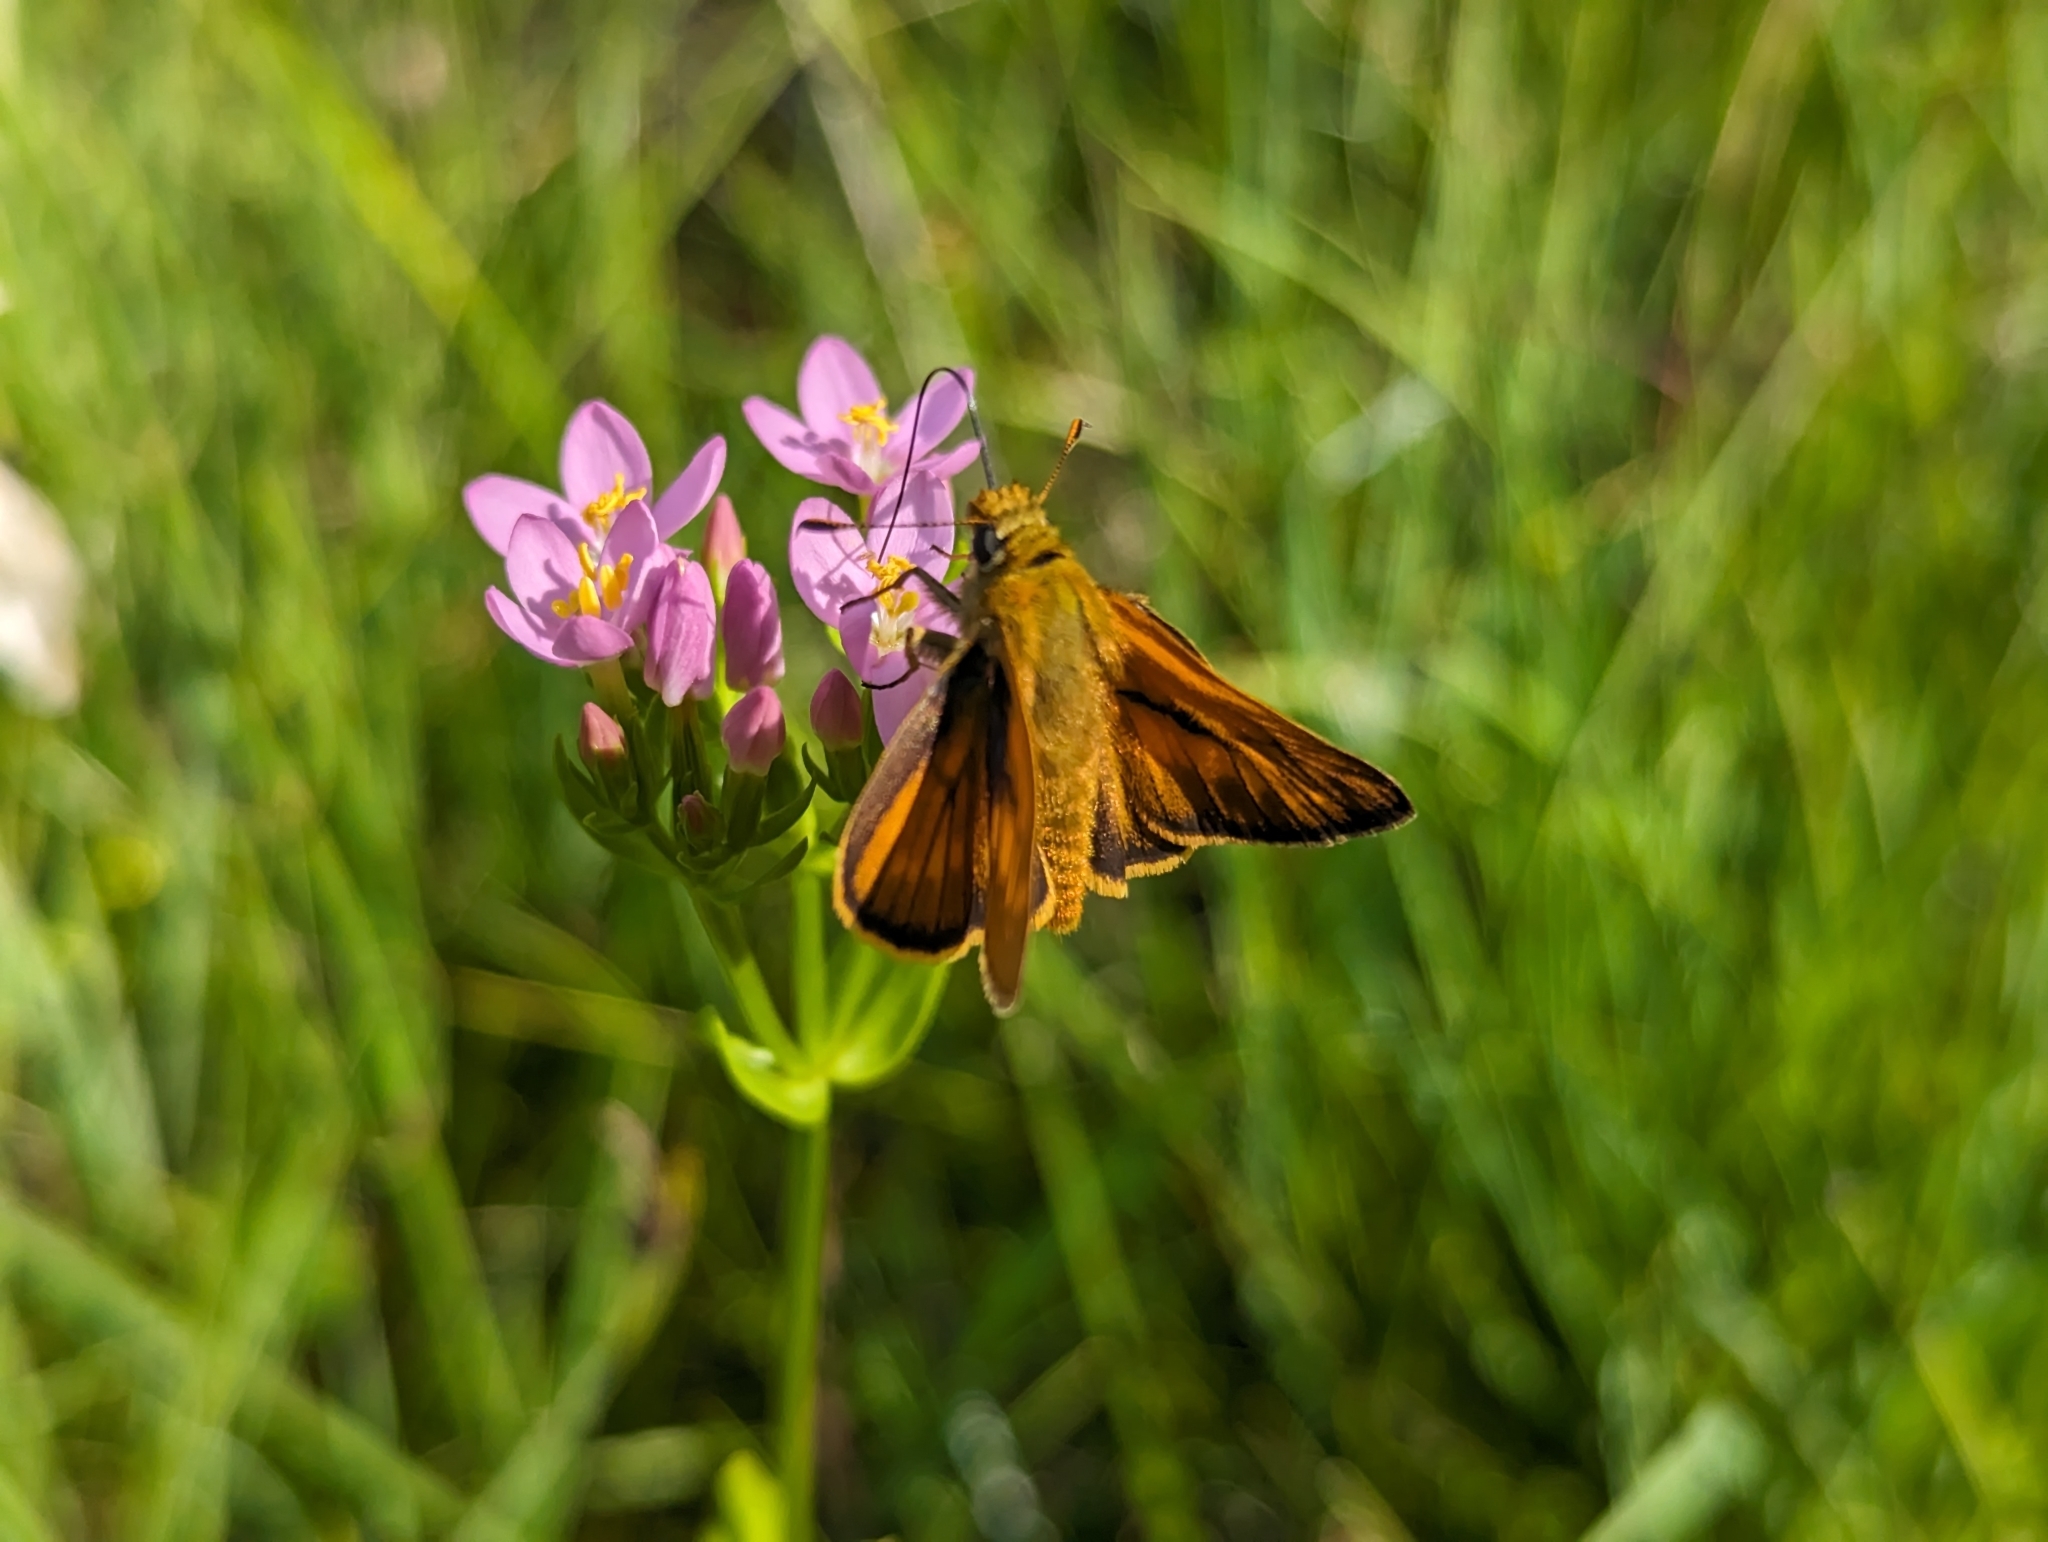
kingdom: Animalia
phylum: Arthropoda
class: Insecta
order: Lepidoptera
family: Hesperiidae
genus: Ochlodes
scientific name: Ochlodes venata
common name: Large skipper
